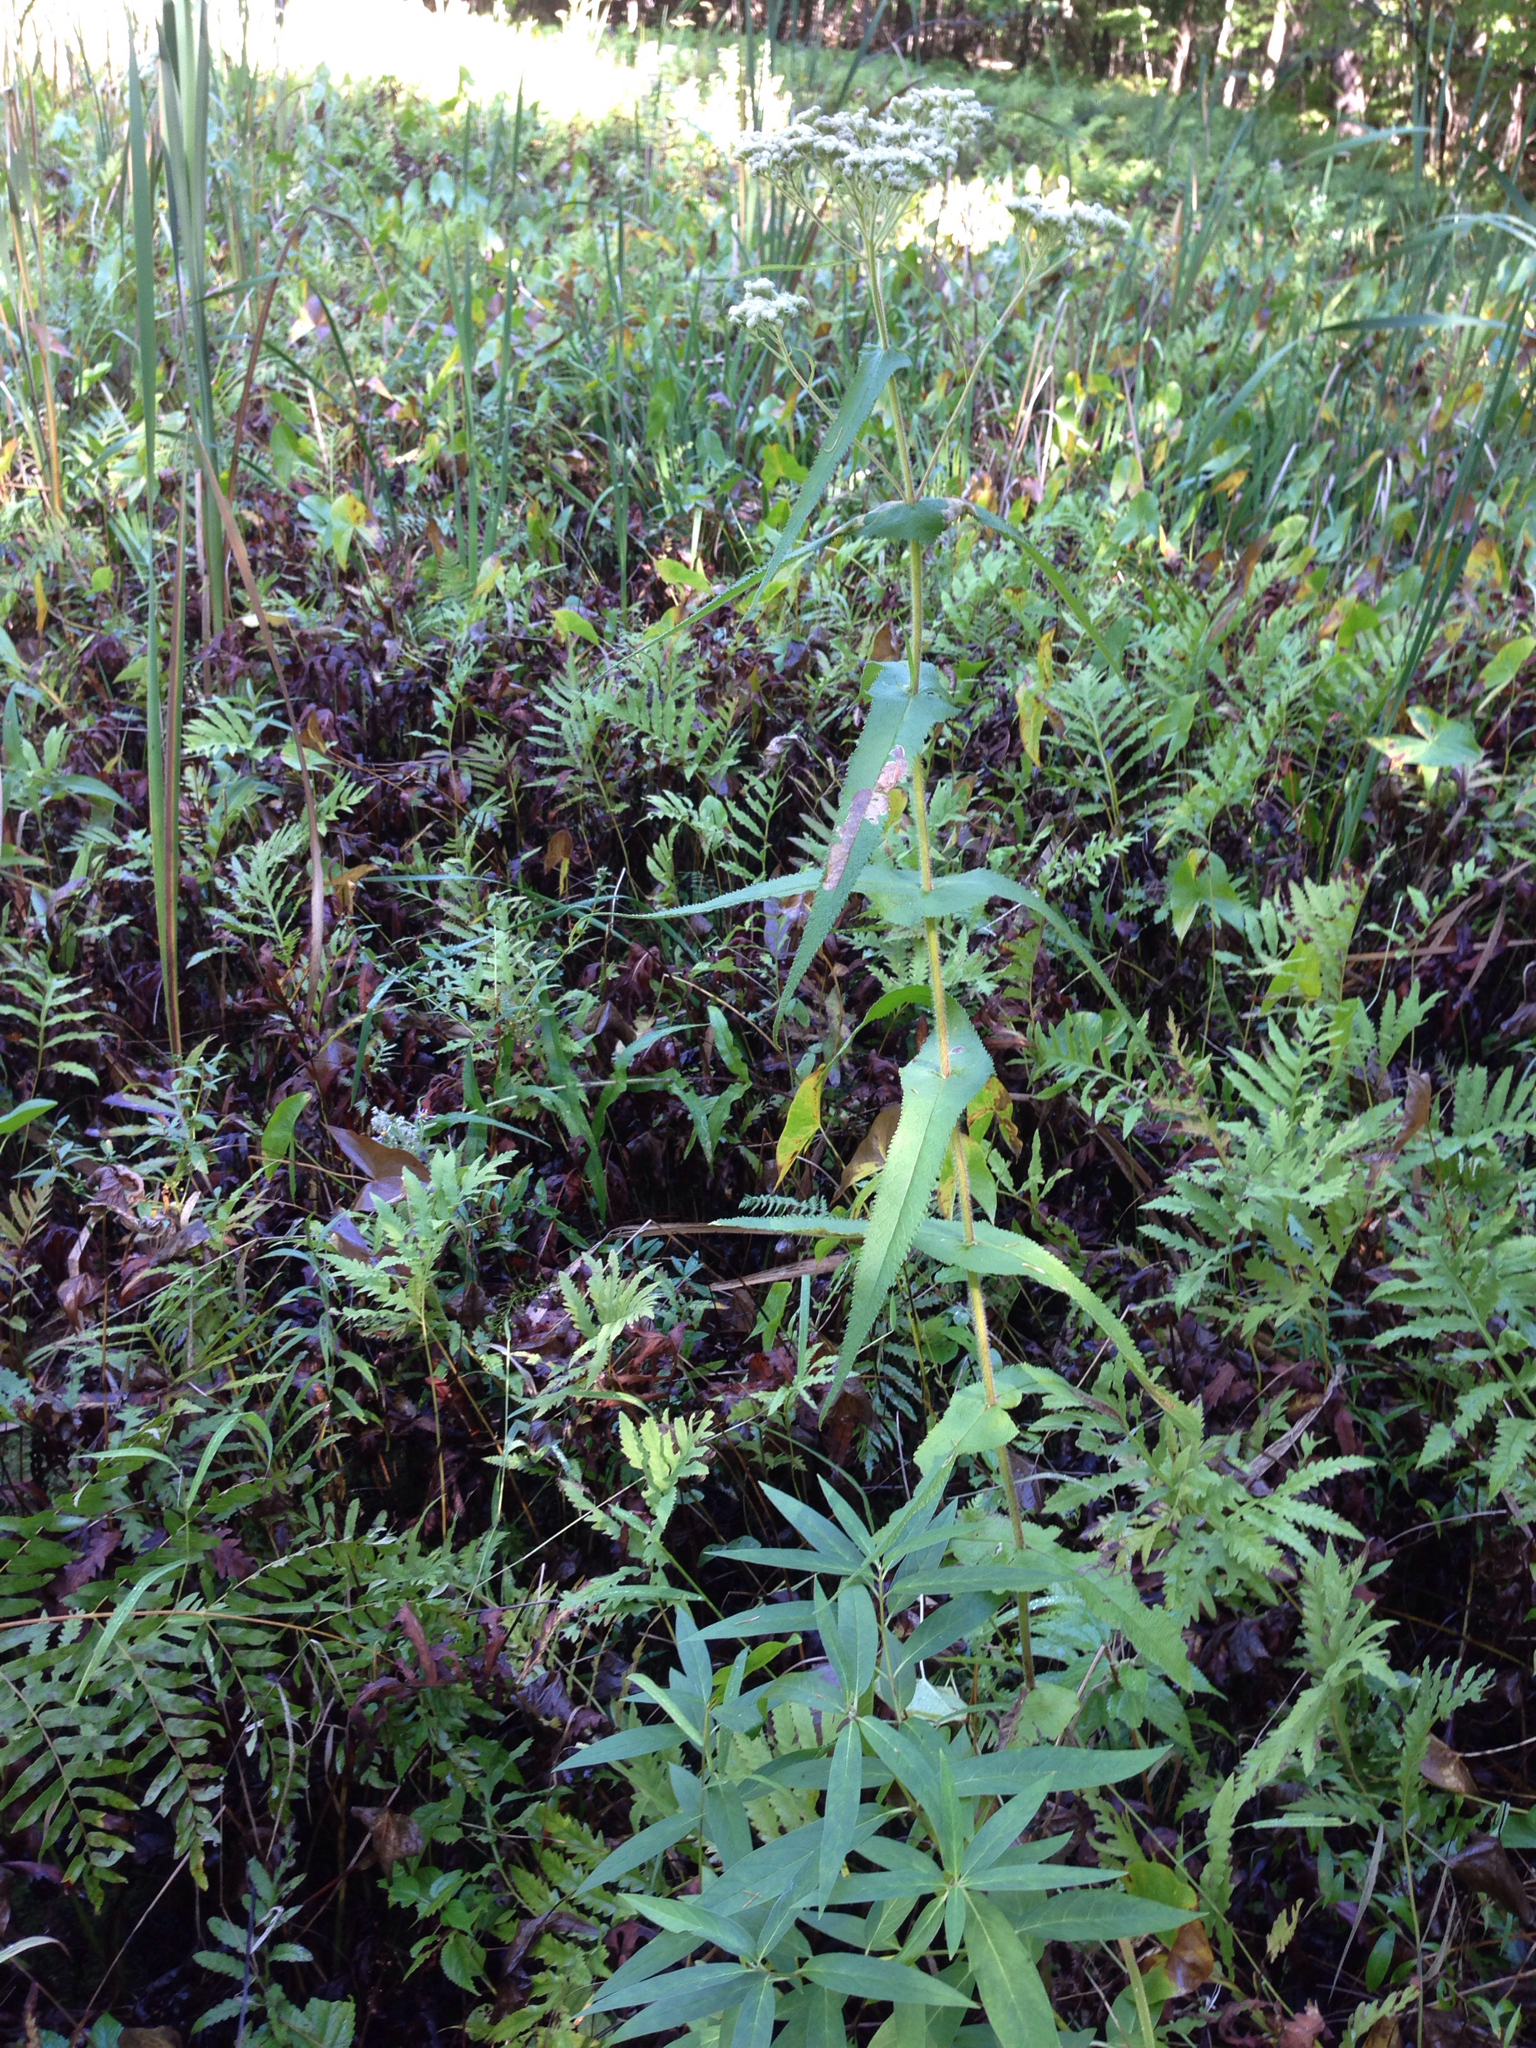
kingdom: Plantae
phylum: Tracheophyta
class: Magnoliopsida
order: Asterales
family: Asteraceae
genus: Eupatorium
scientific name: Eupatorium perfoliatum
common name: Boneset
